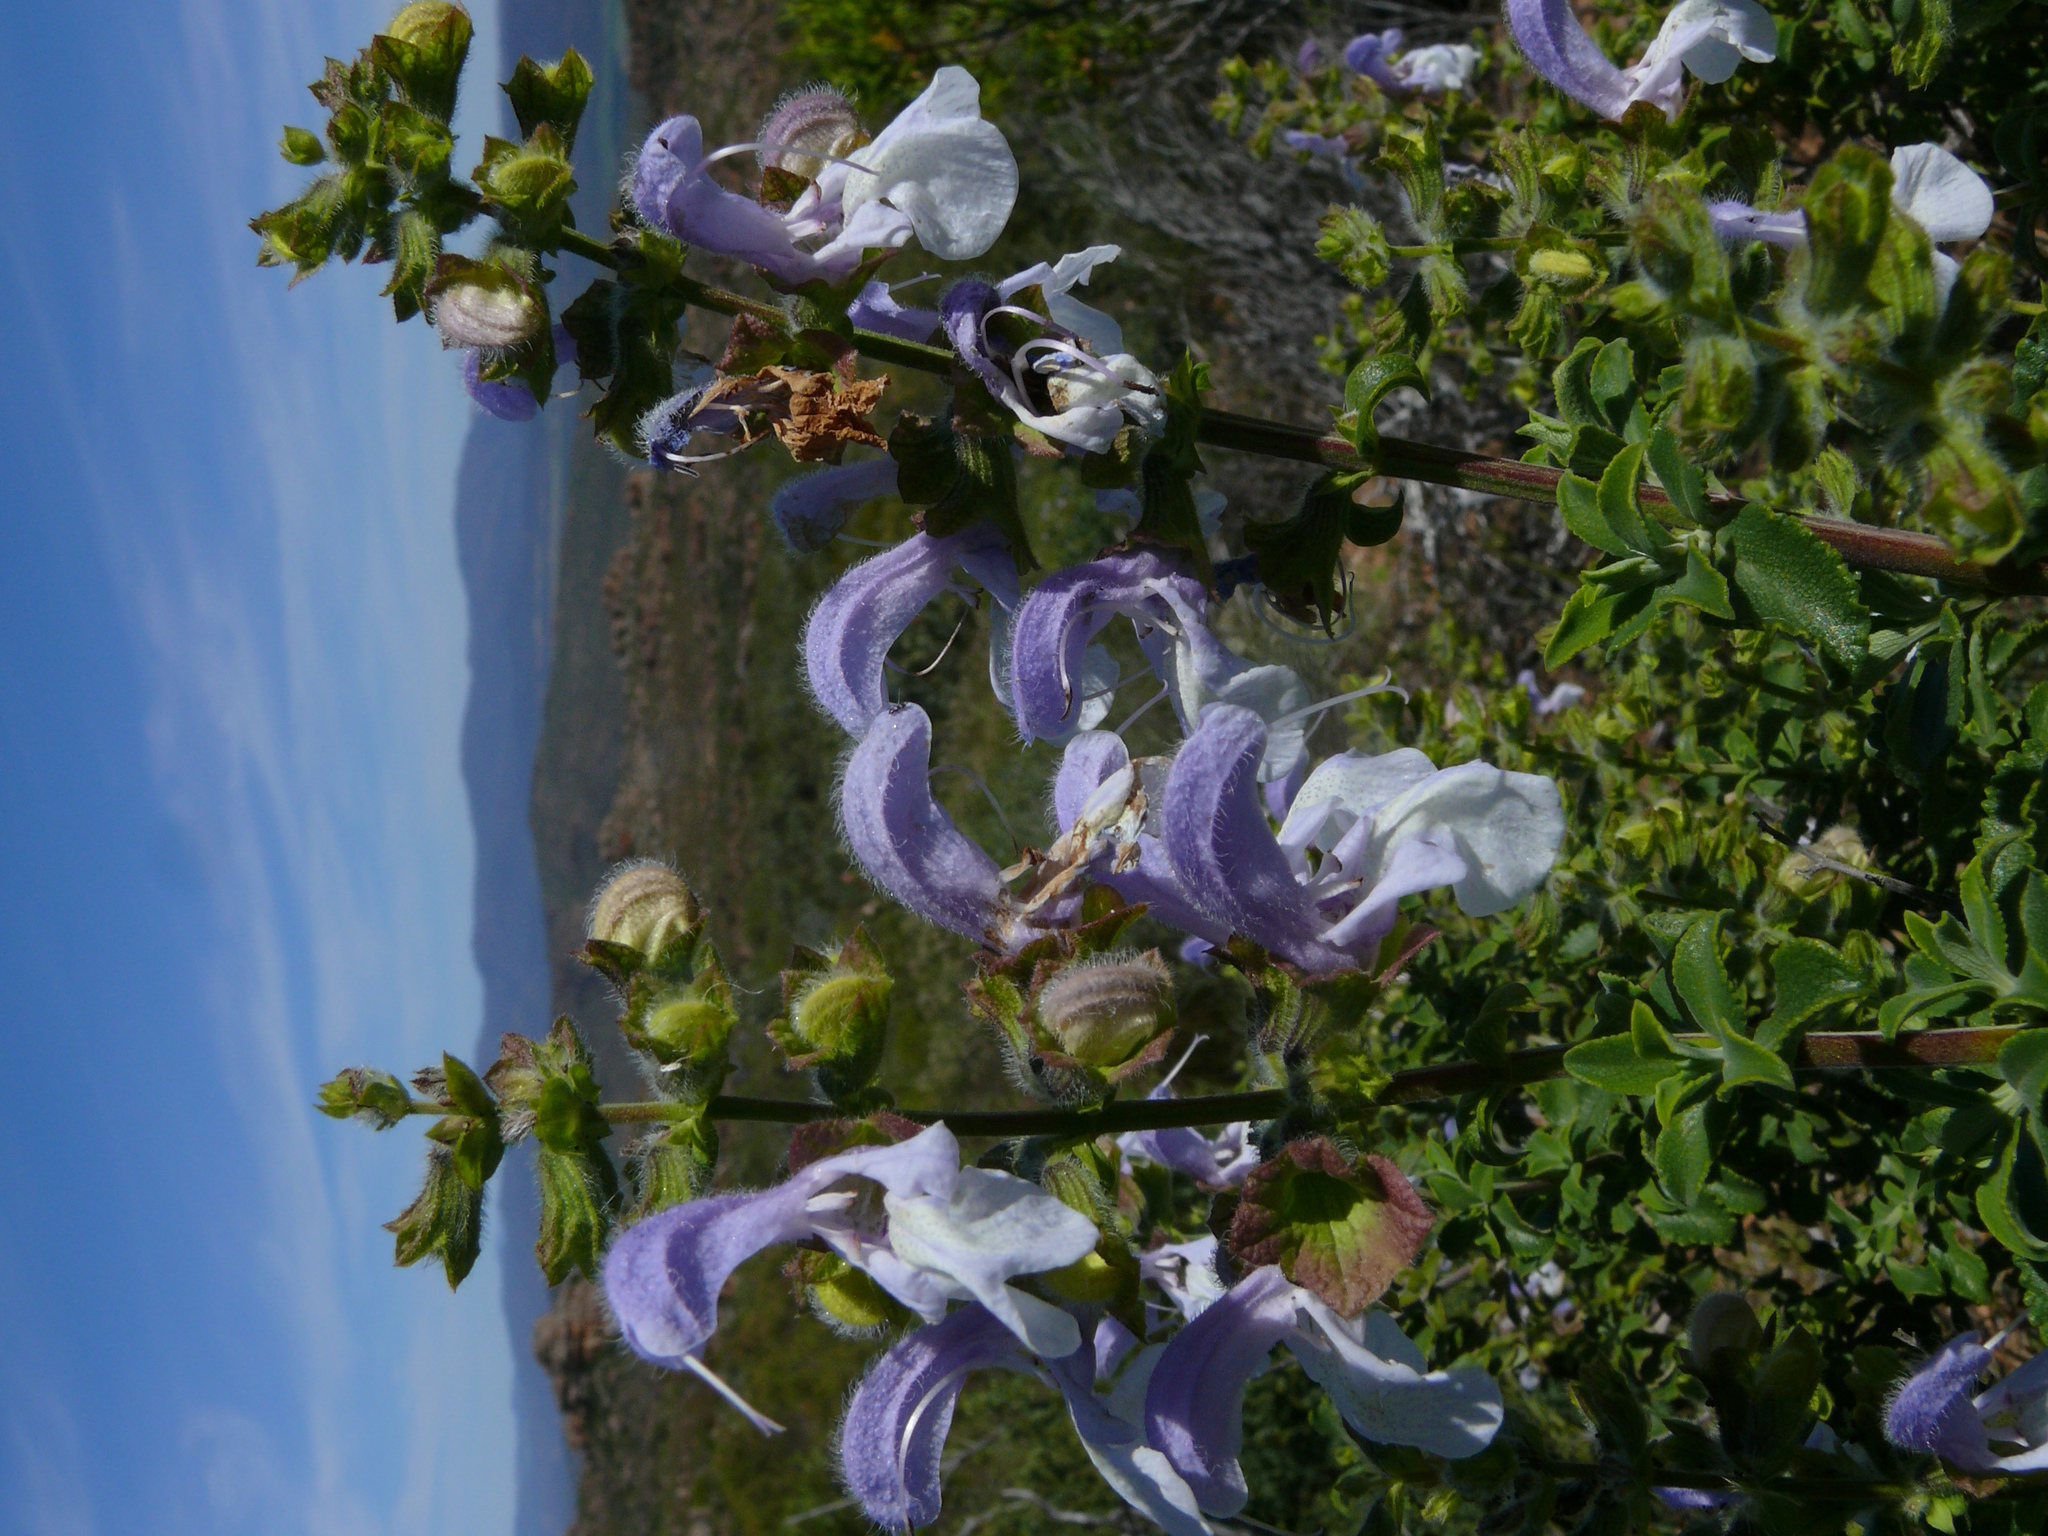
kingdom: Plantae
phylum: Tracheophyta
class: Magnoliopsida
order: Lamiales
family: Lamiaceae
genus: Salvia
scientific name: Salvia africana
